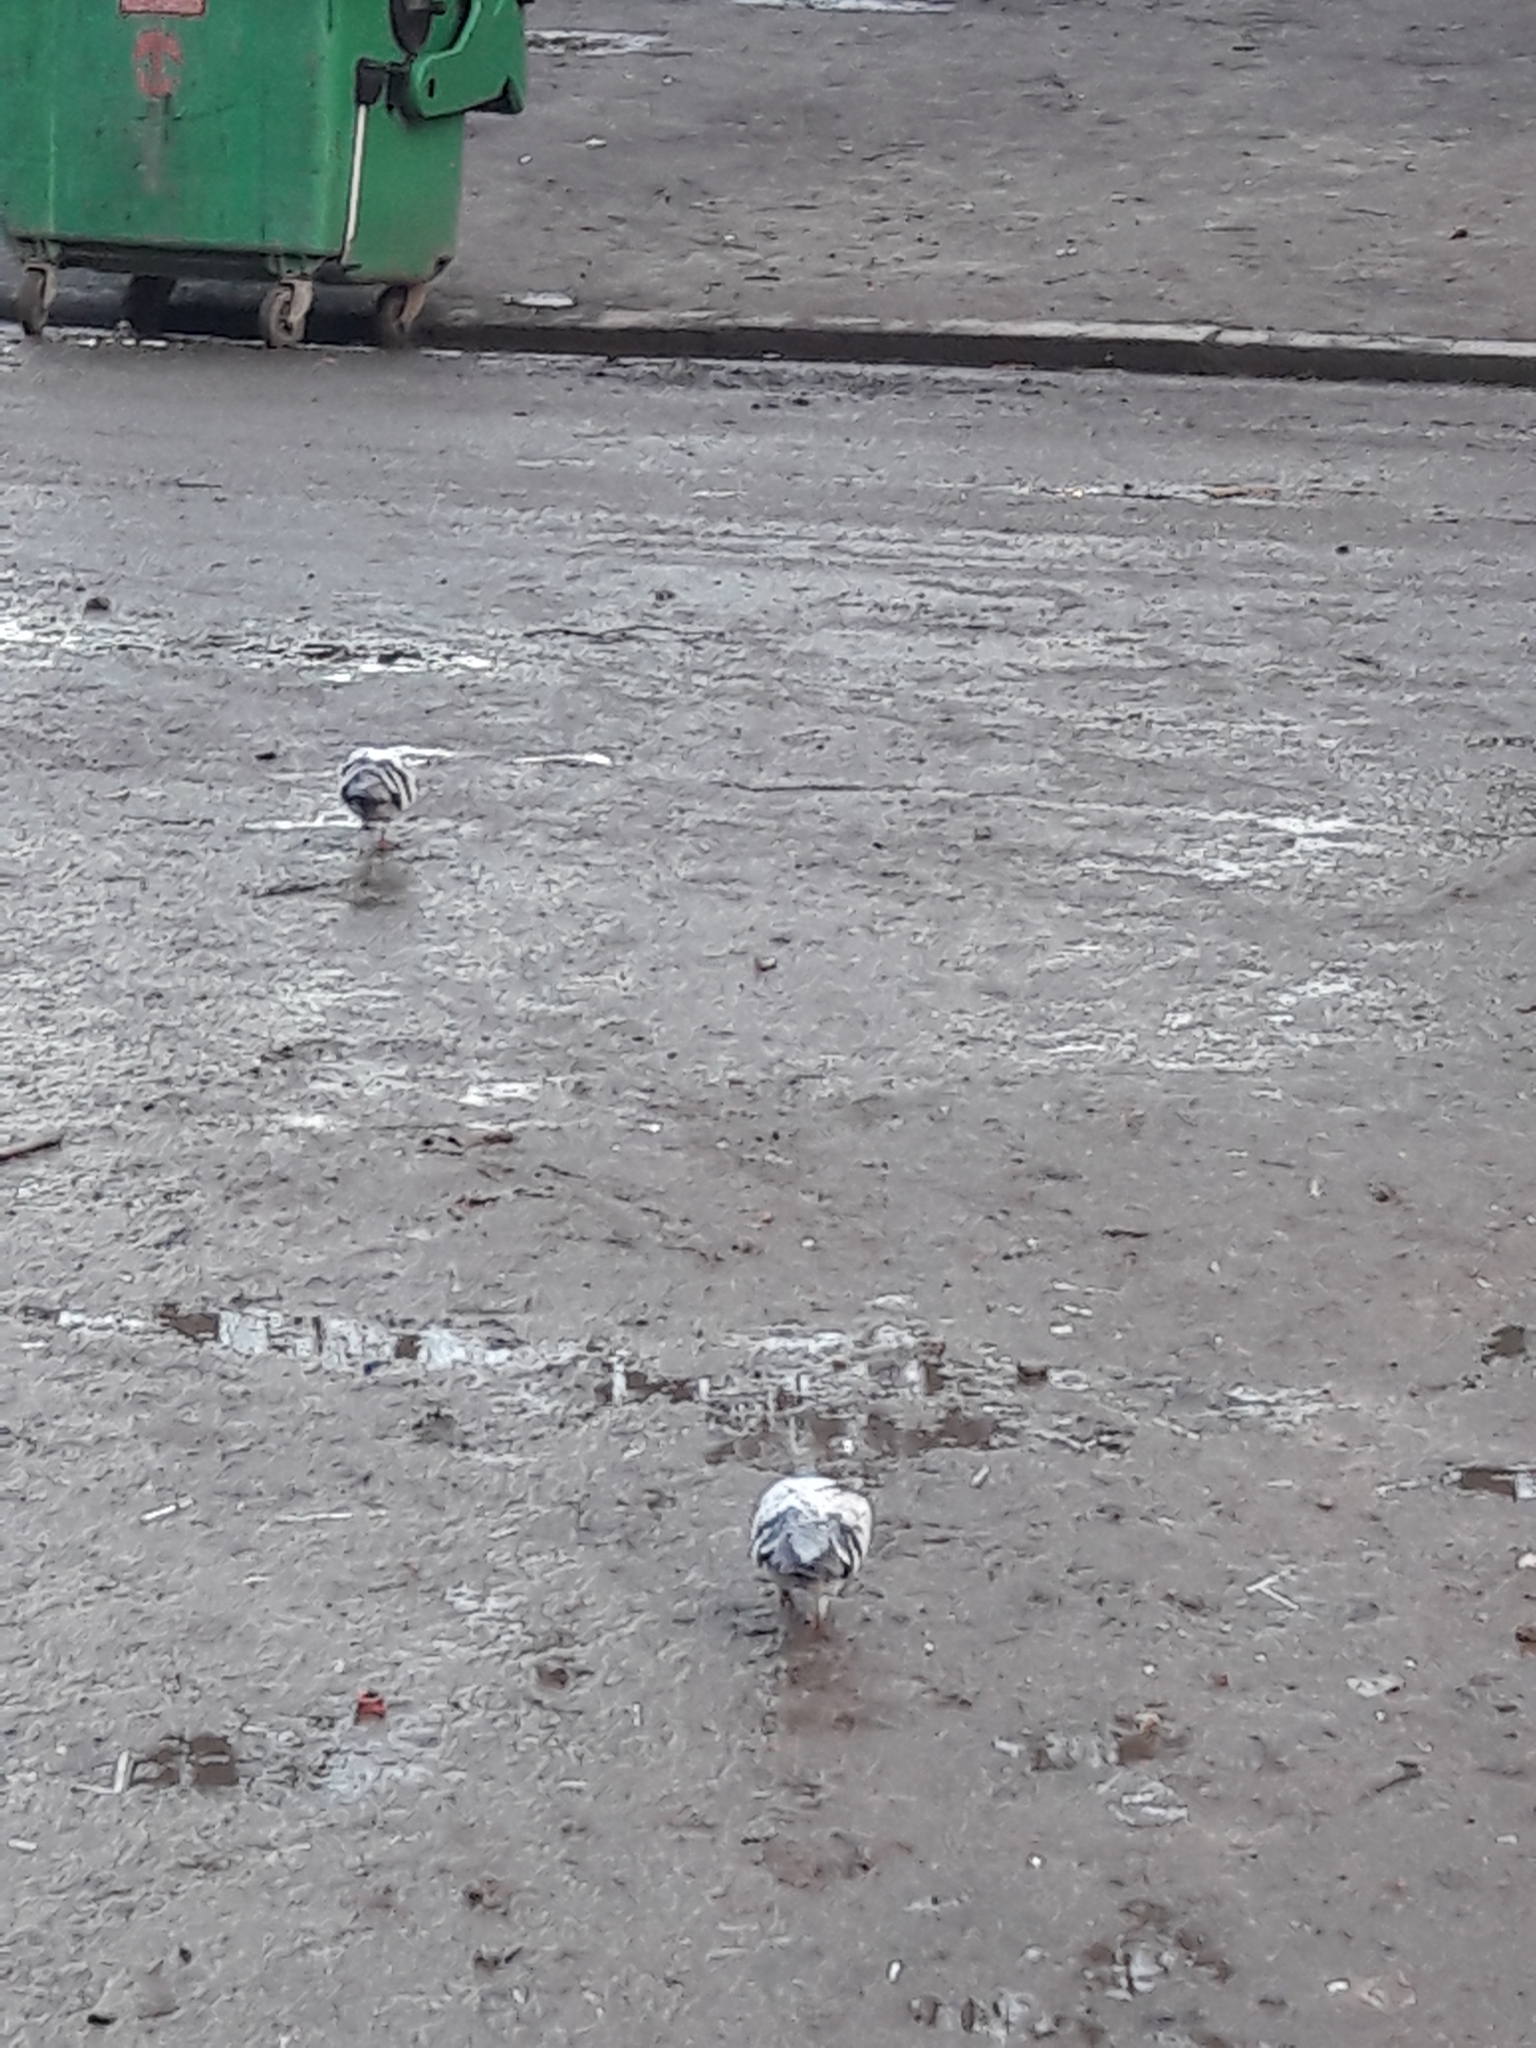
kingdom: Animalia
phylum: Chordata
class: Aves
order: Columbiformes
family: Columbidae
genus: Columba
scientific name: Columba livia
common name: Rock pigeon
